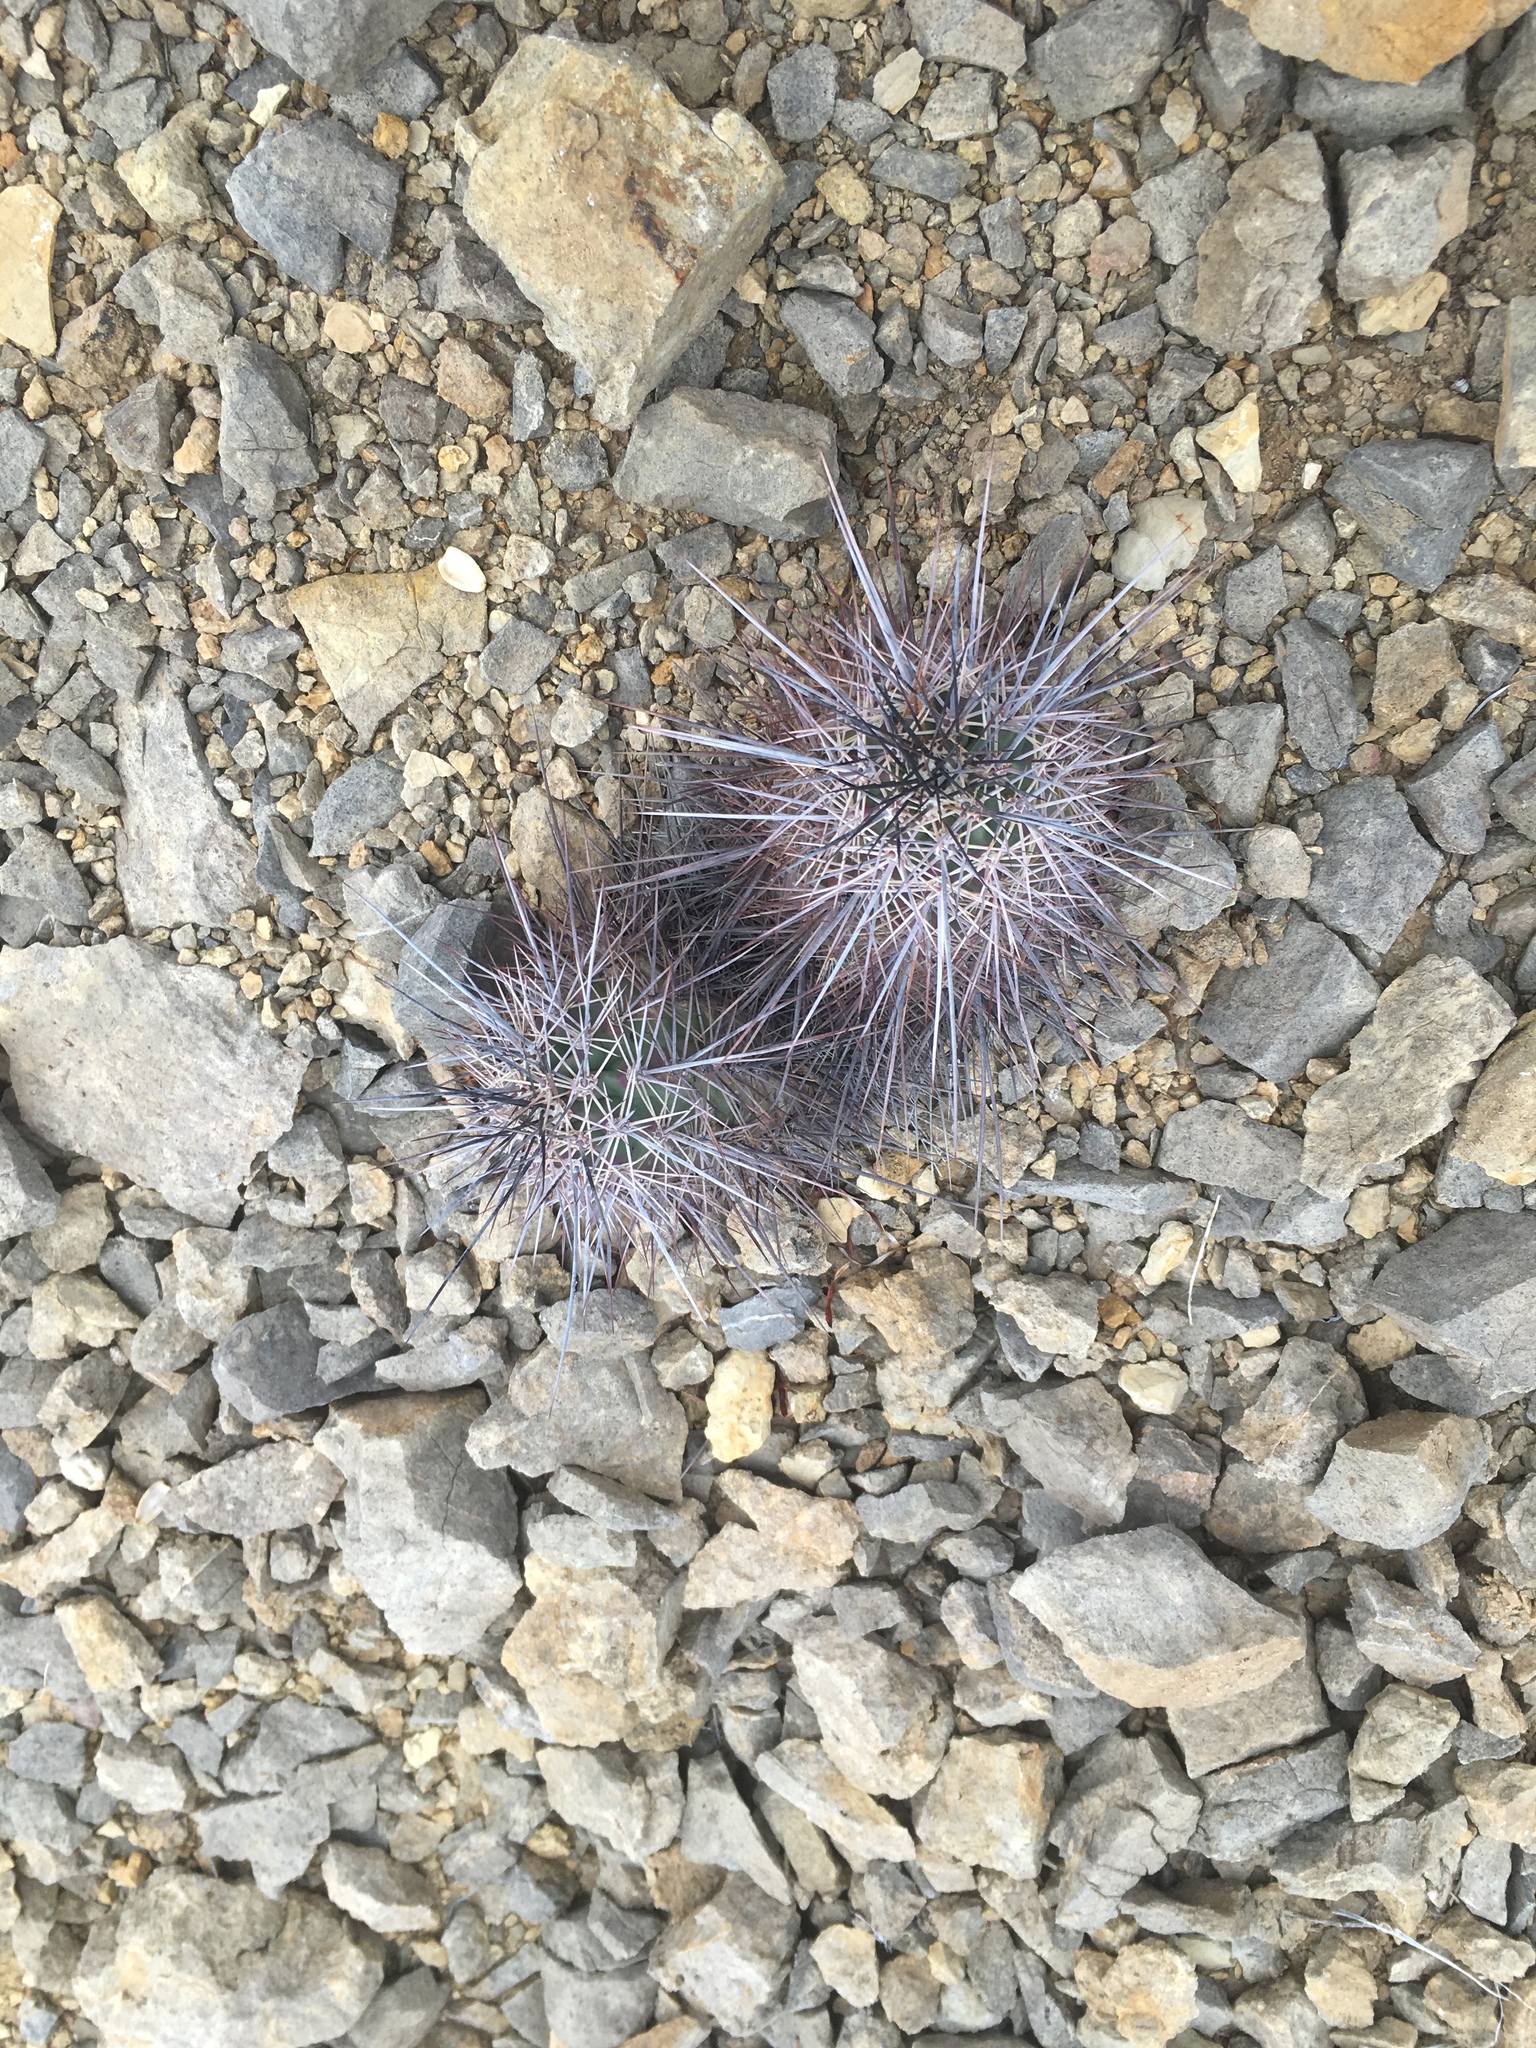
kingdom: Plantae
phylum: Tracheophyta
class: Magnoliopsida
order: Caryophyllales
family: Cactaceae
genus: Echinocereus
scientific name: Echinocereus coccineus
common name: Scarlet hedgehog cactus
